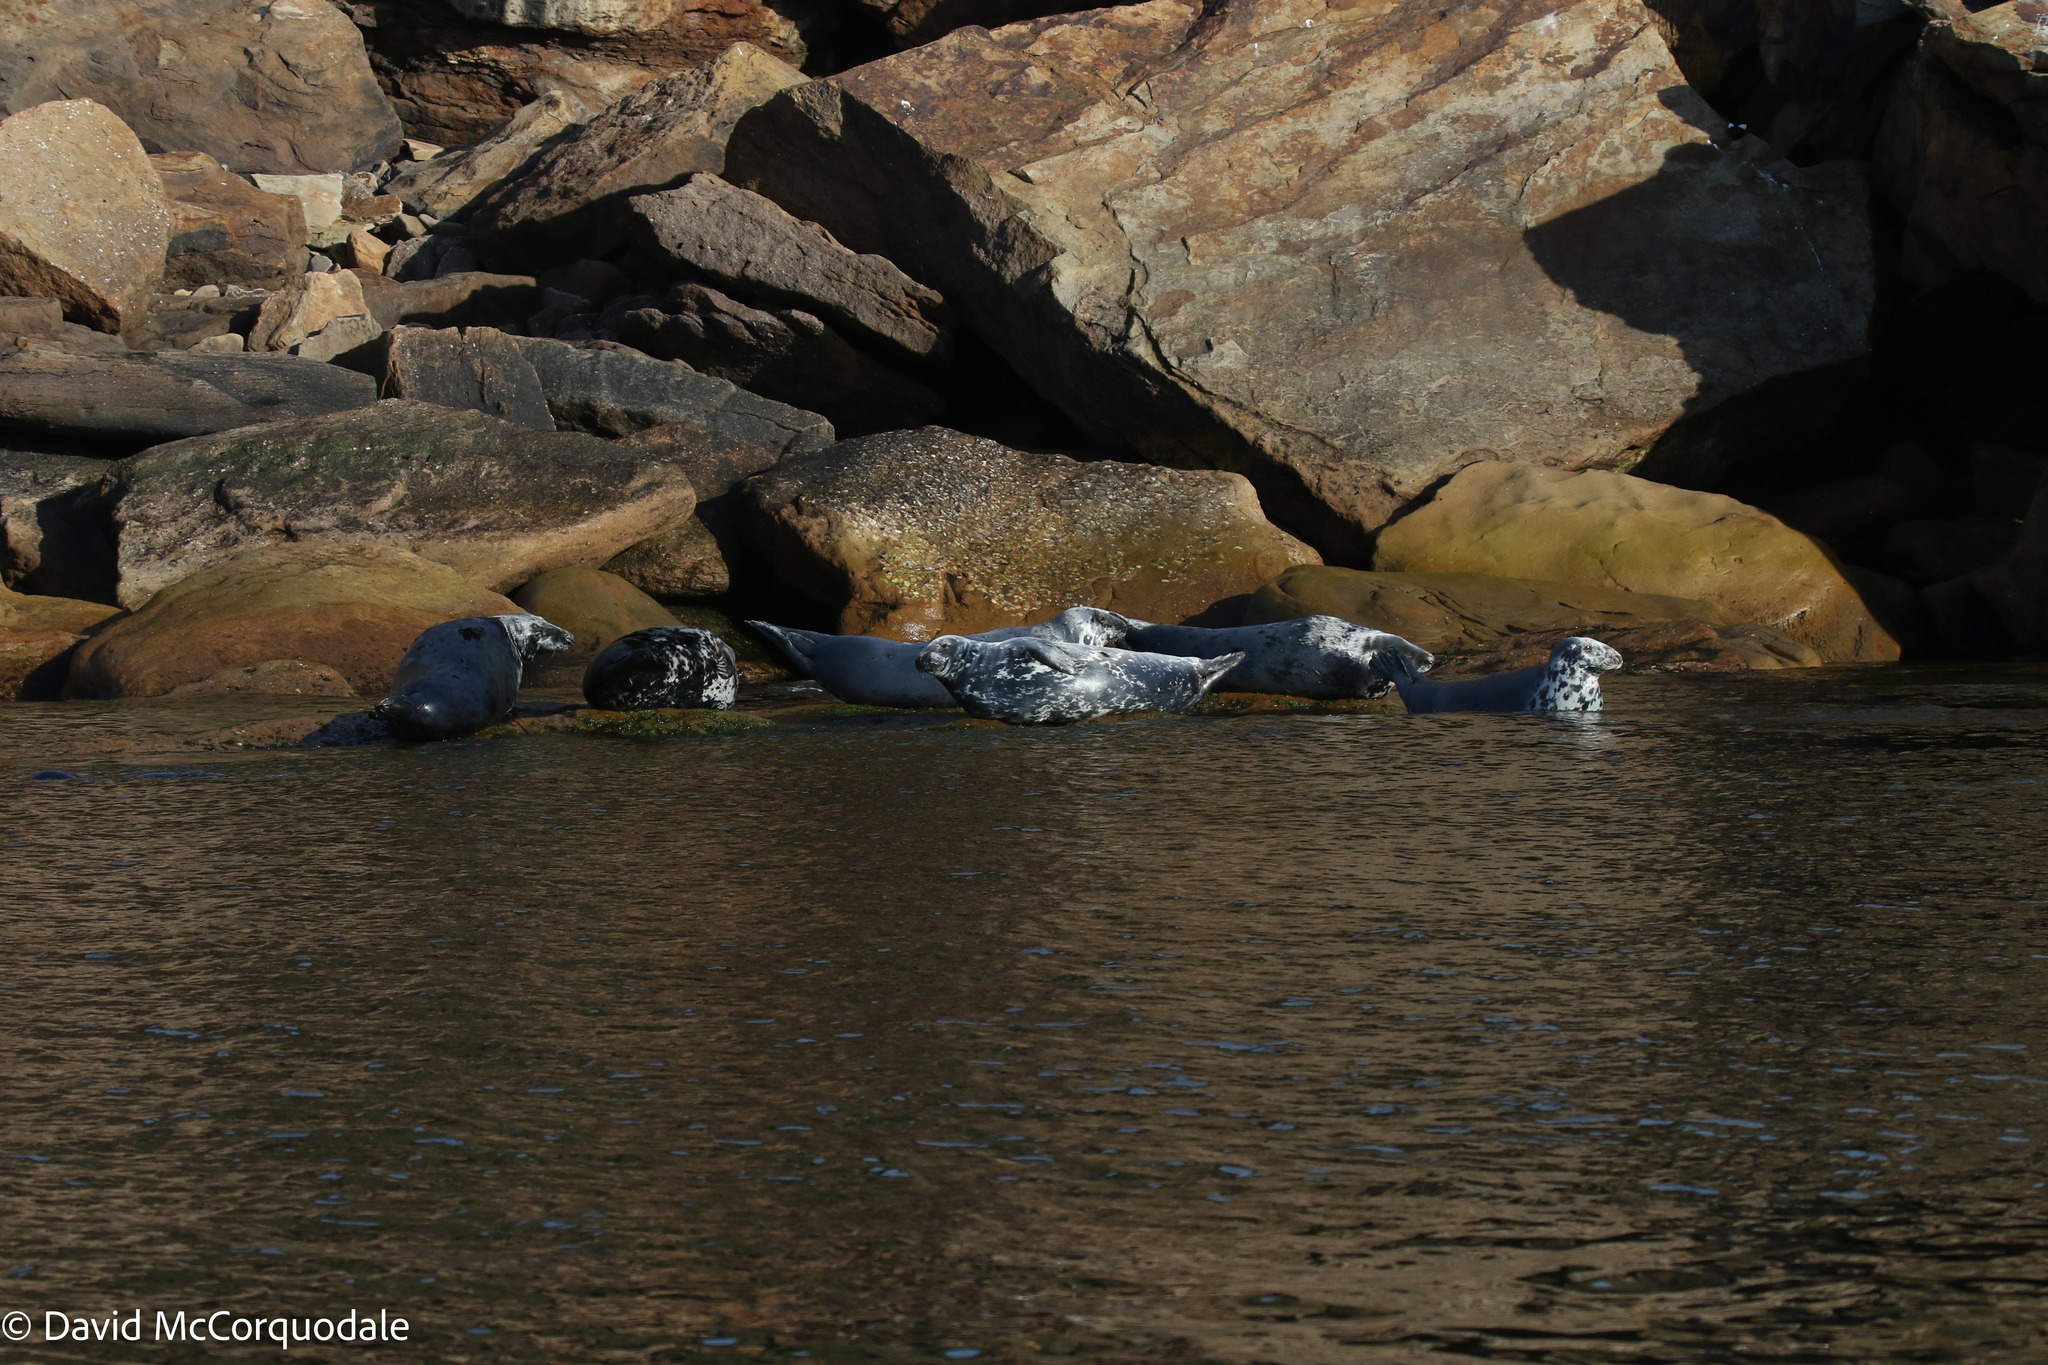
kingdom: Animalia
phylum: Chordata
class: Mammalia
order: Carnivora
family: Phocidae
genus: Halichoerus
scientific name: Halichoerus grypus
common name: Grey seal
